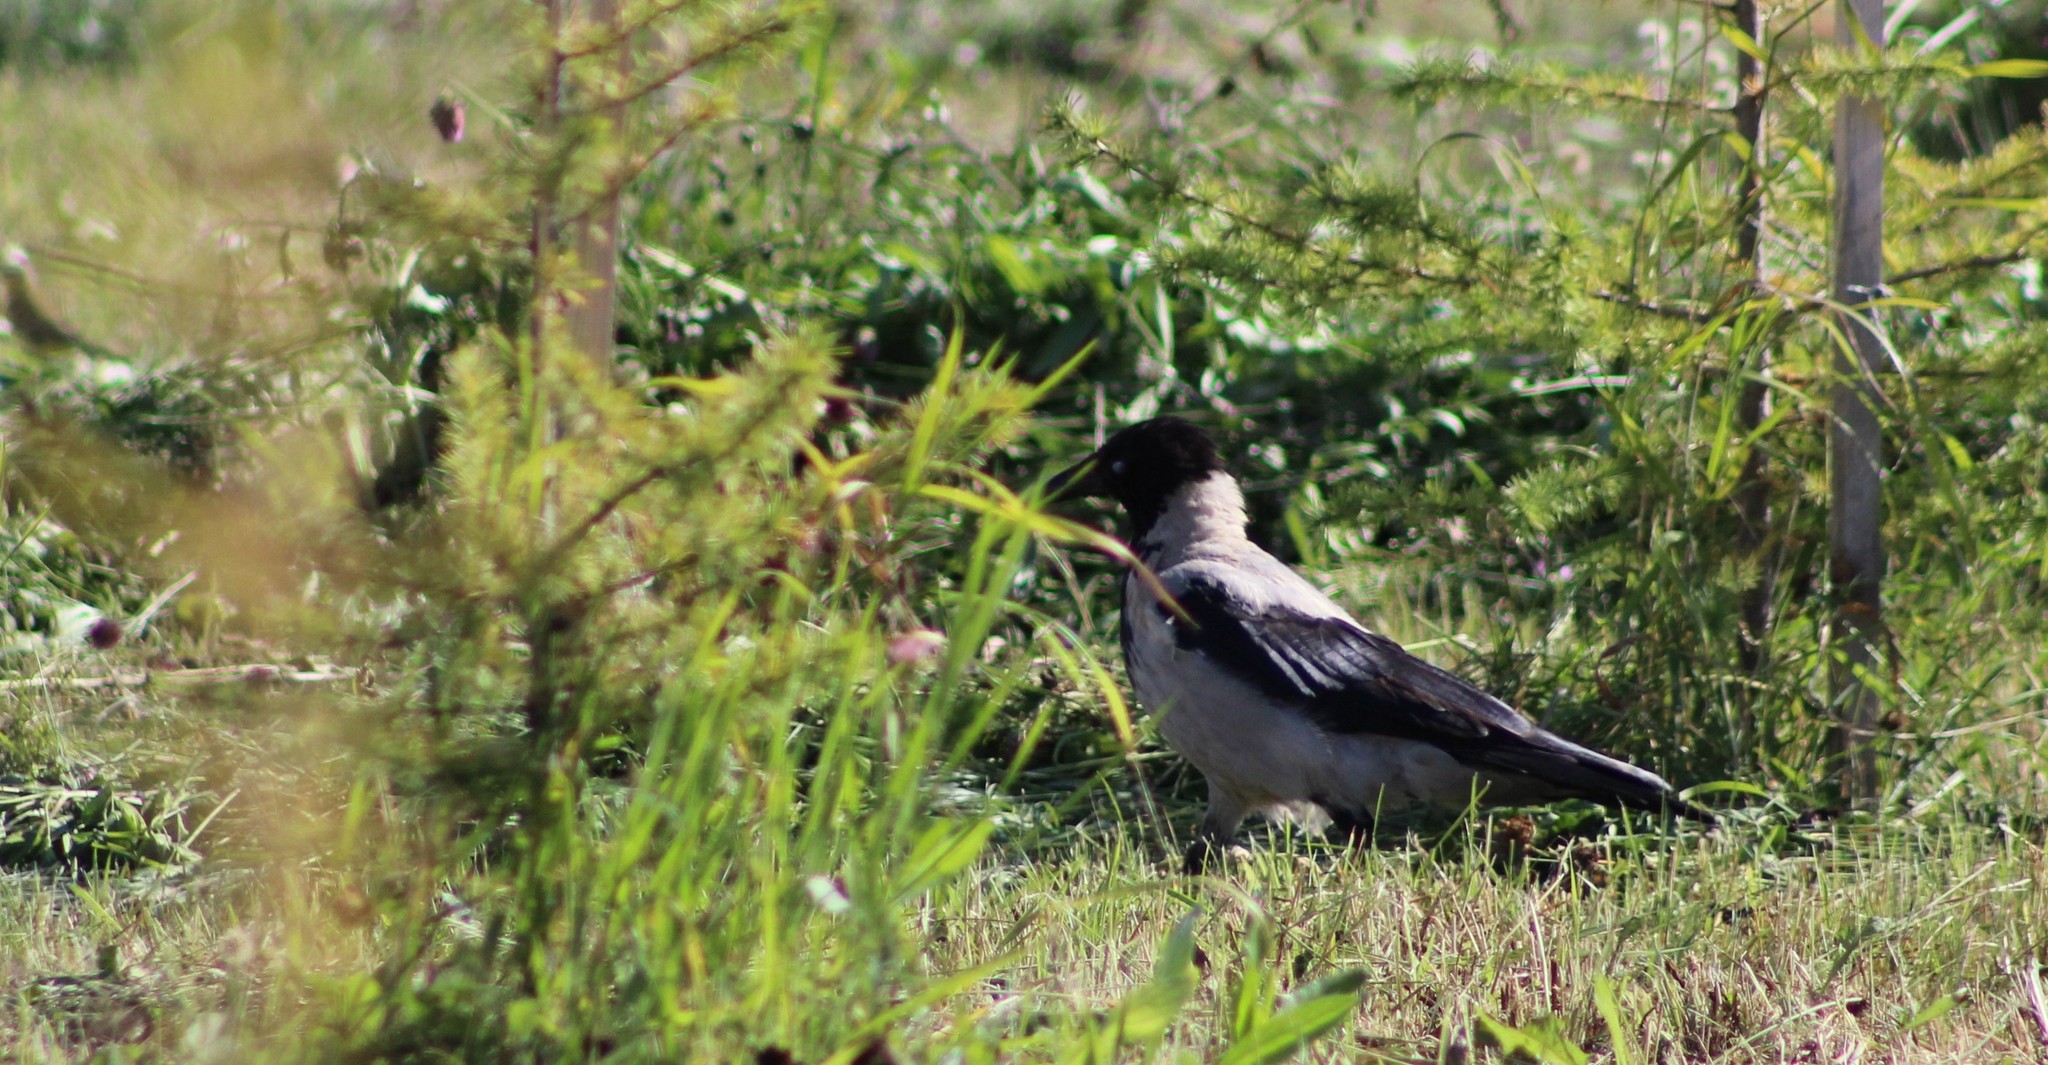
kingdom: Animalia
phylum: Chordata
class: Aves
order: Passeriformes
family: Corvidae
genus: Corvus
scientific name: Corvus cornix
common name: Hooded crow
